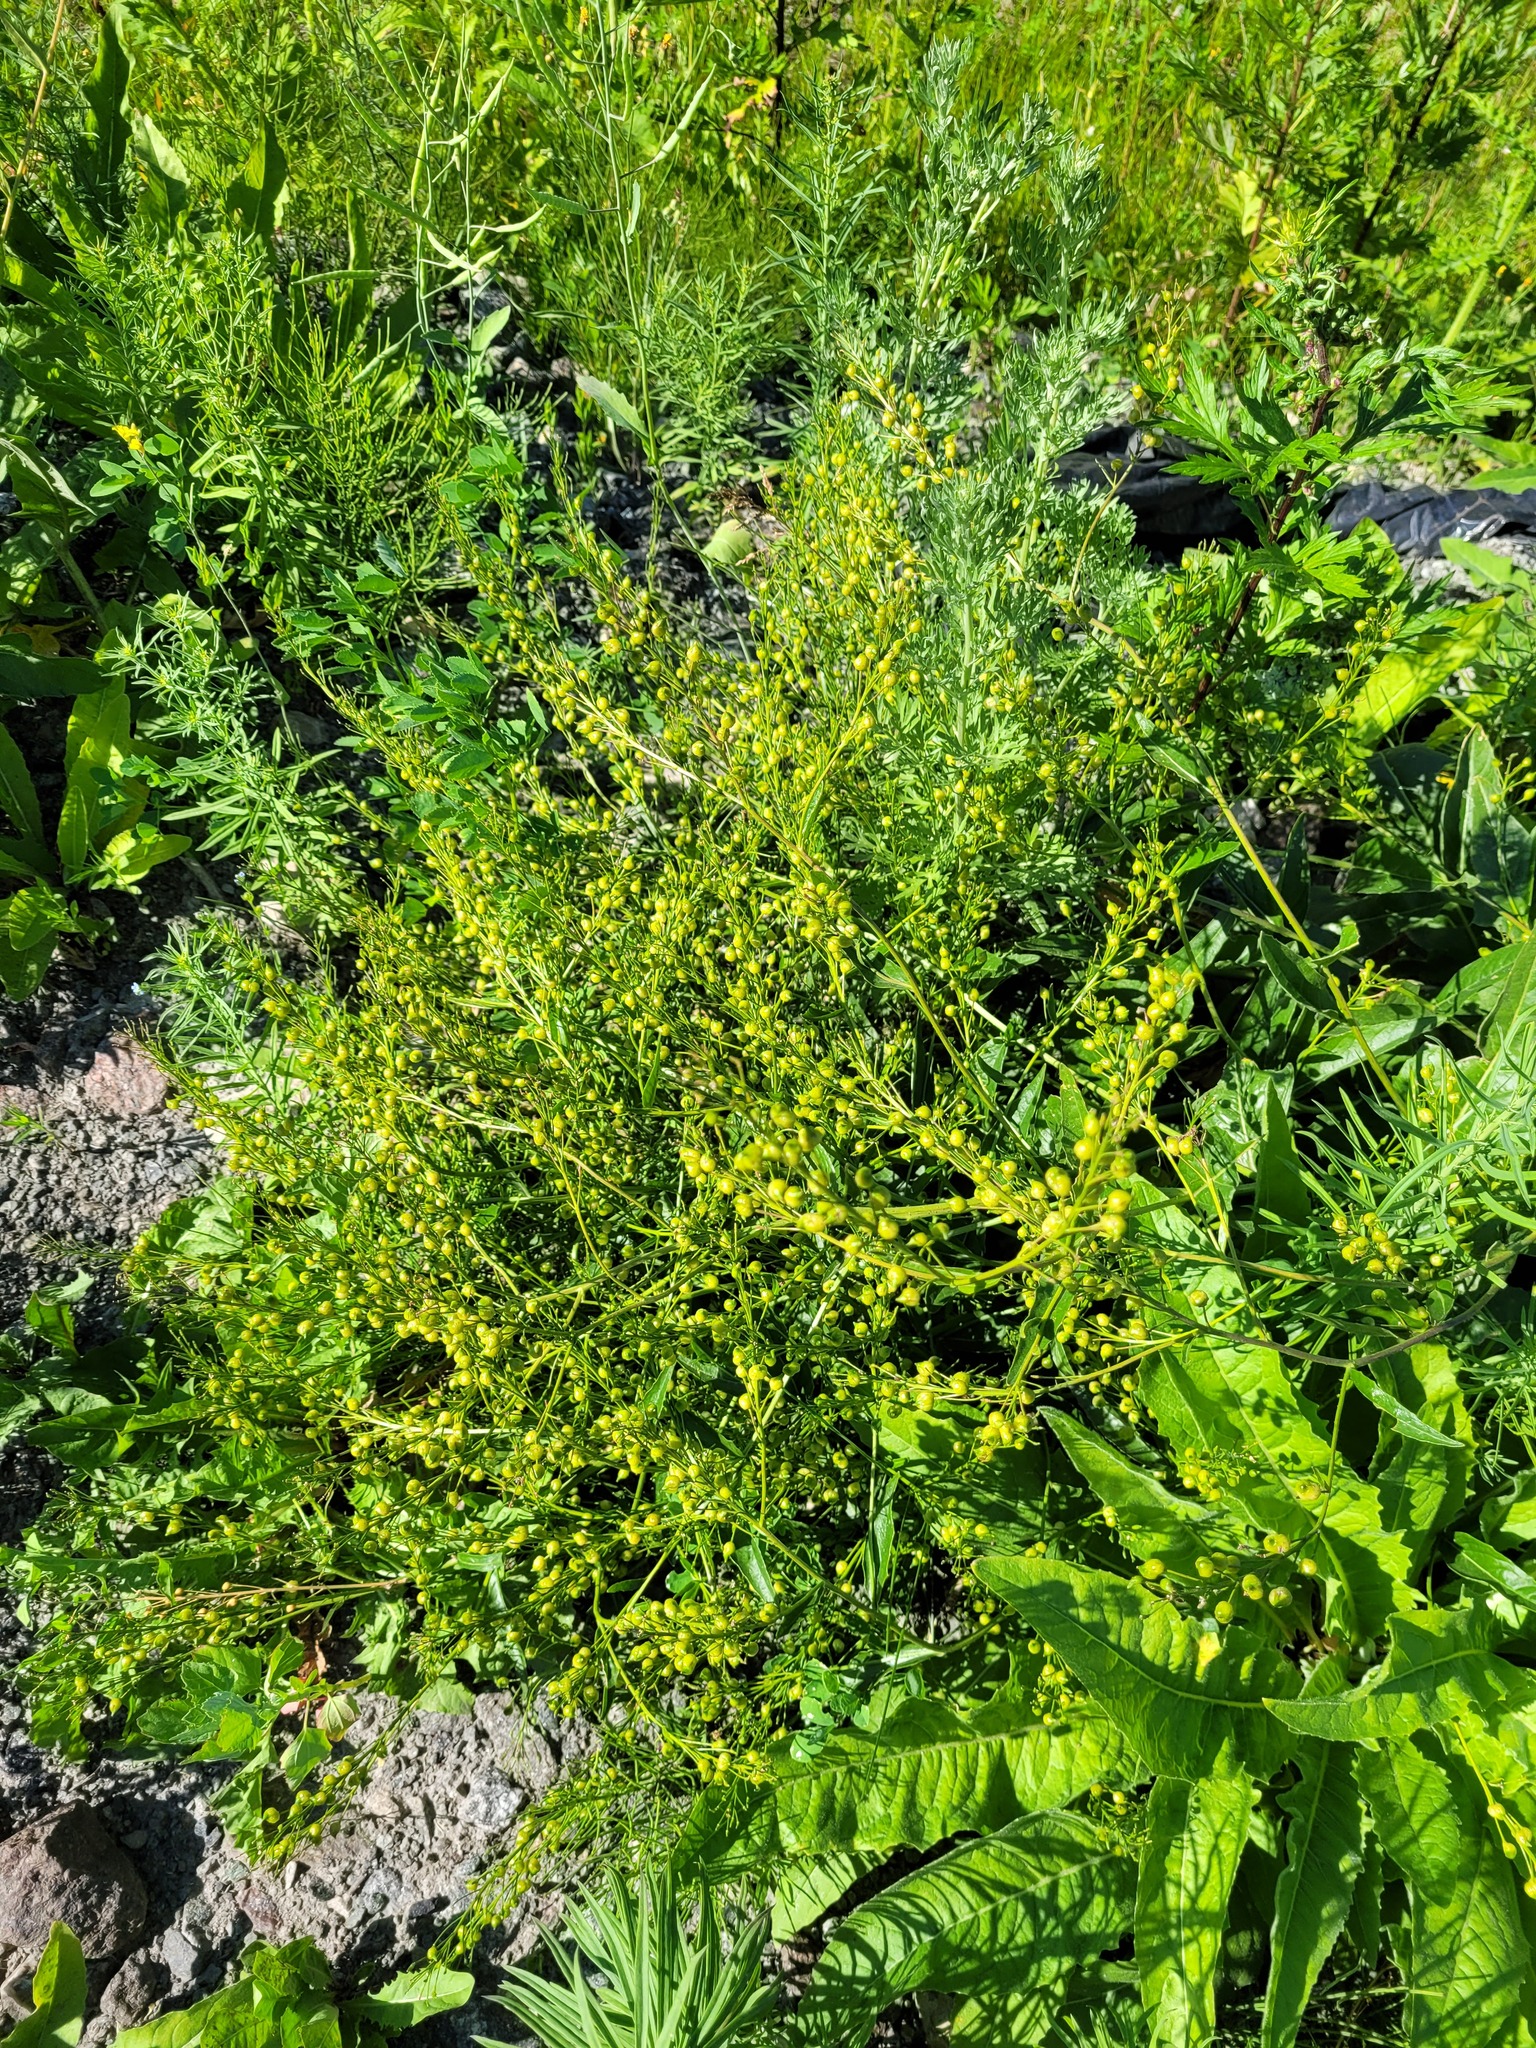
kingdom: Plantae
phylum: Tracheophyta
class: Magnoliopsida
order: Brassicales
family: Brassicaceae
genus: Bunias
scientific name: Bunias orientalis
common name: Warty-cabbage
